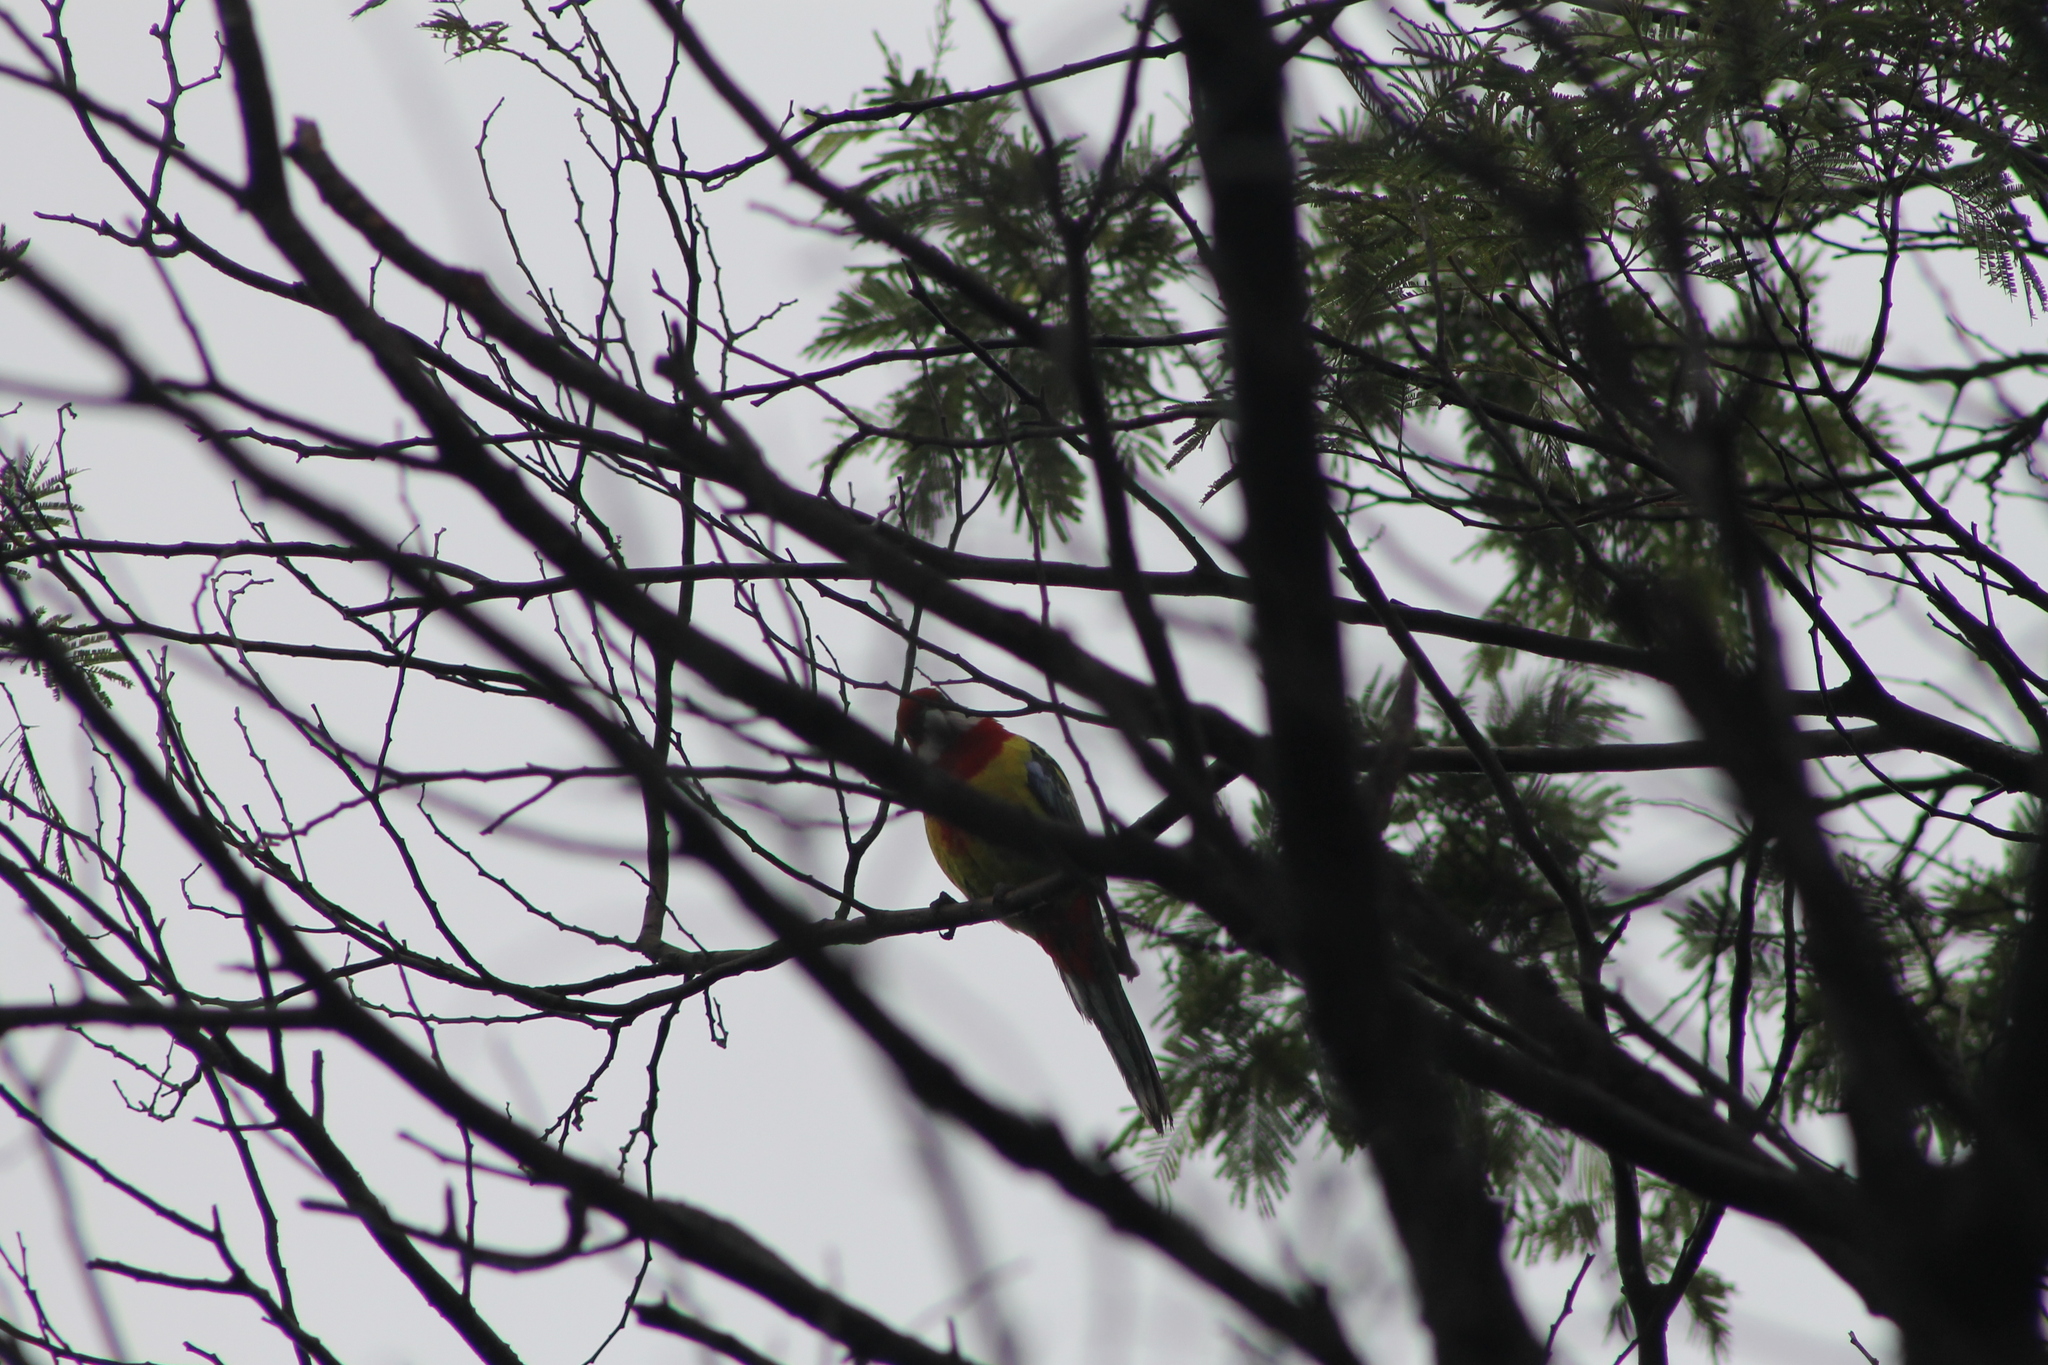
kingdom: Animalia
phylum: Chordata
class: Aves
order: Psittaciformes
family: Psittacidae
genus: Platycercus
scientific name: Platycercus eximius
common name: Eastern rosella
